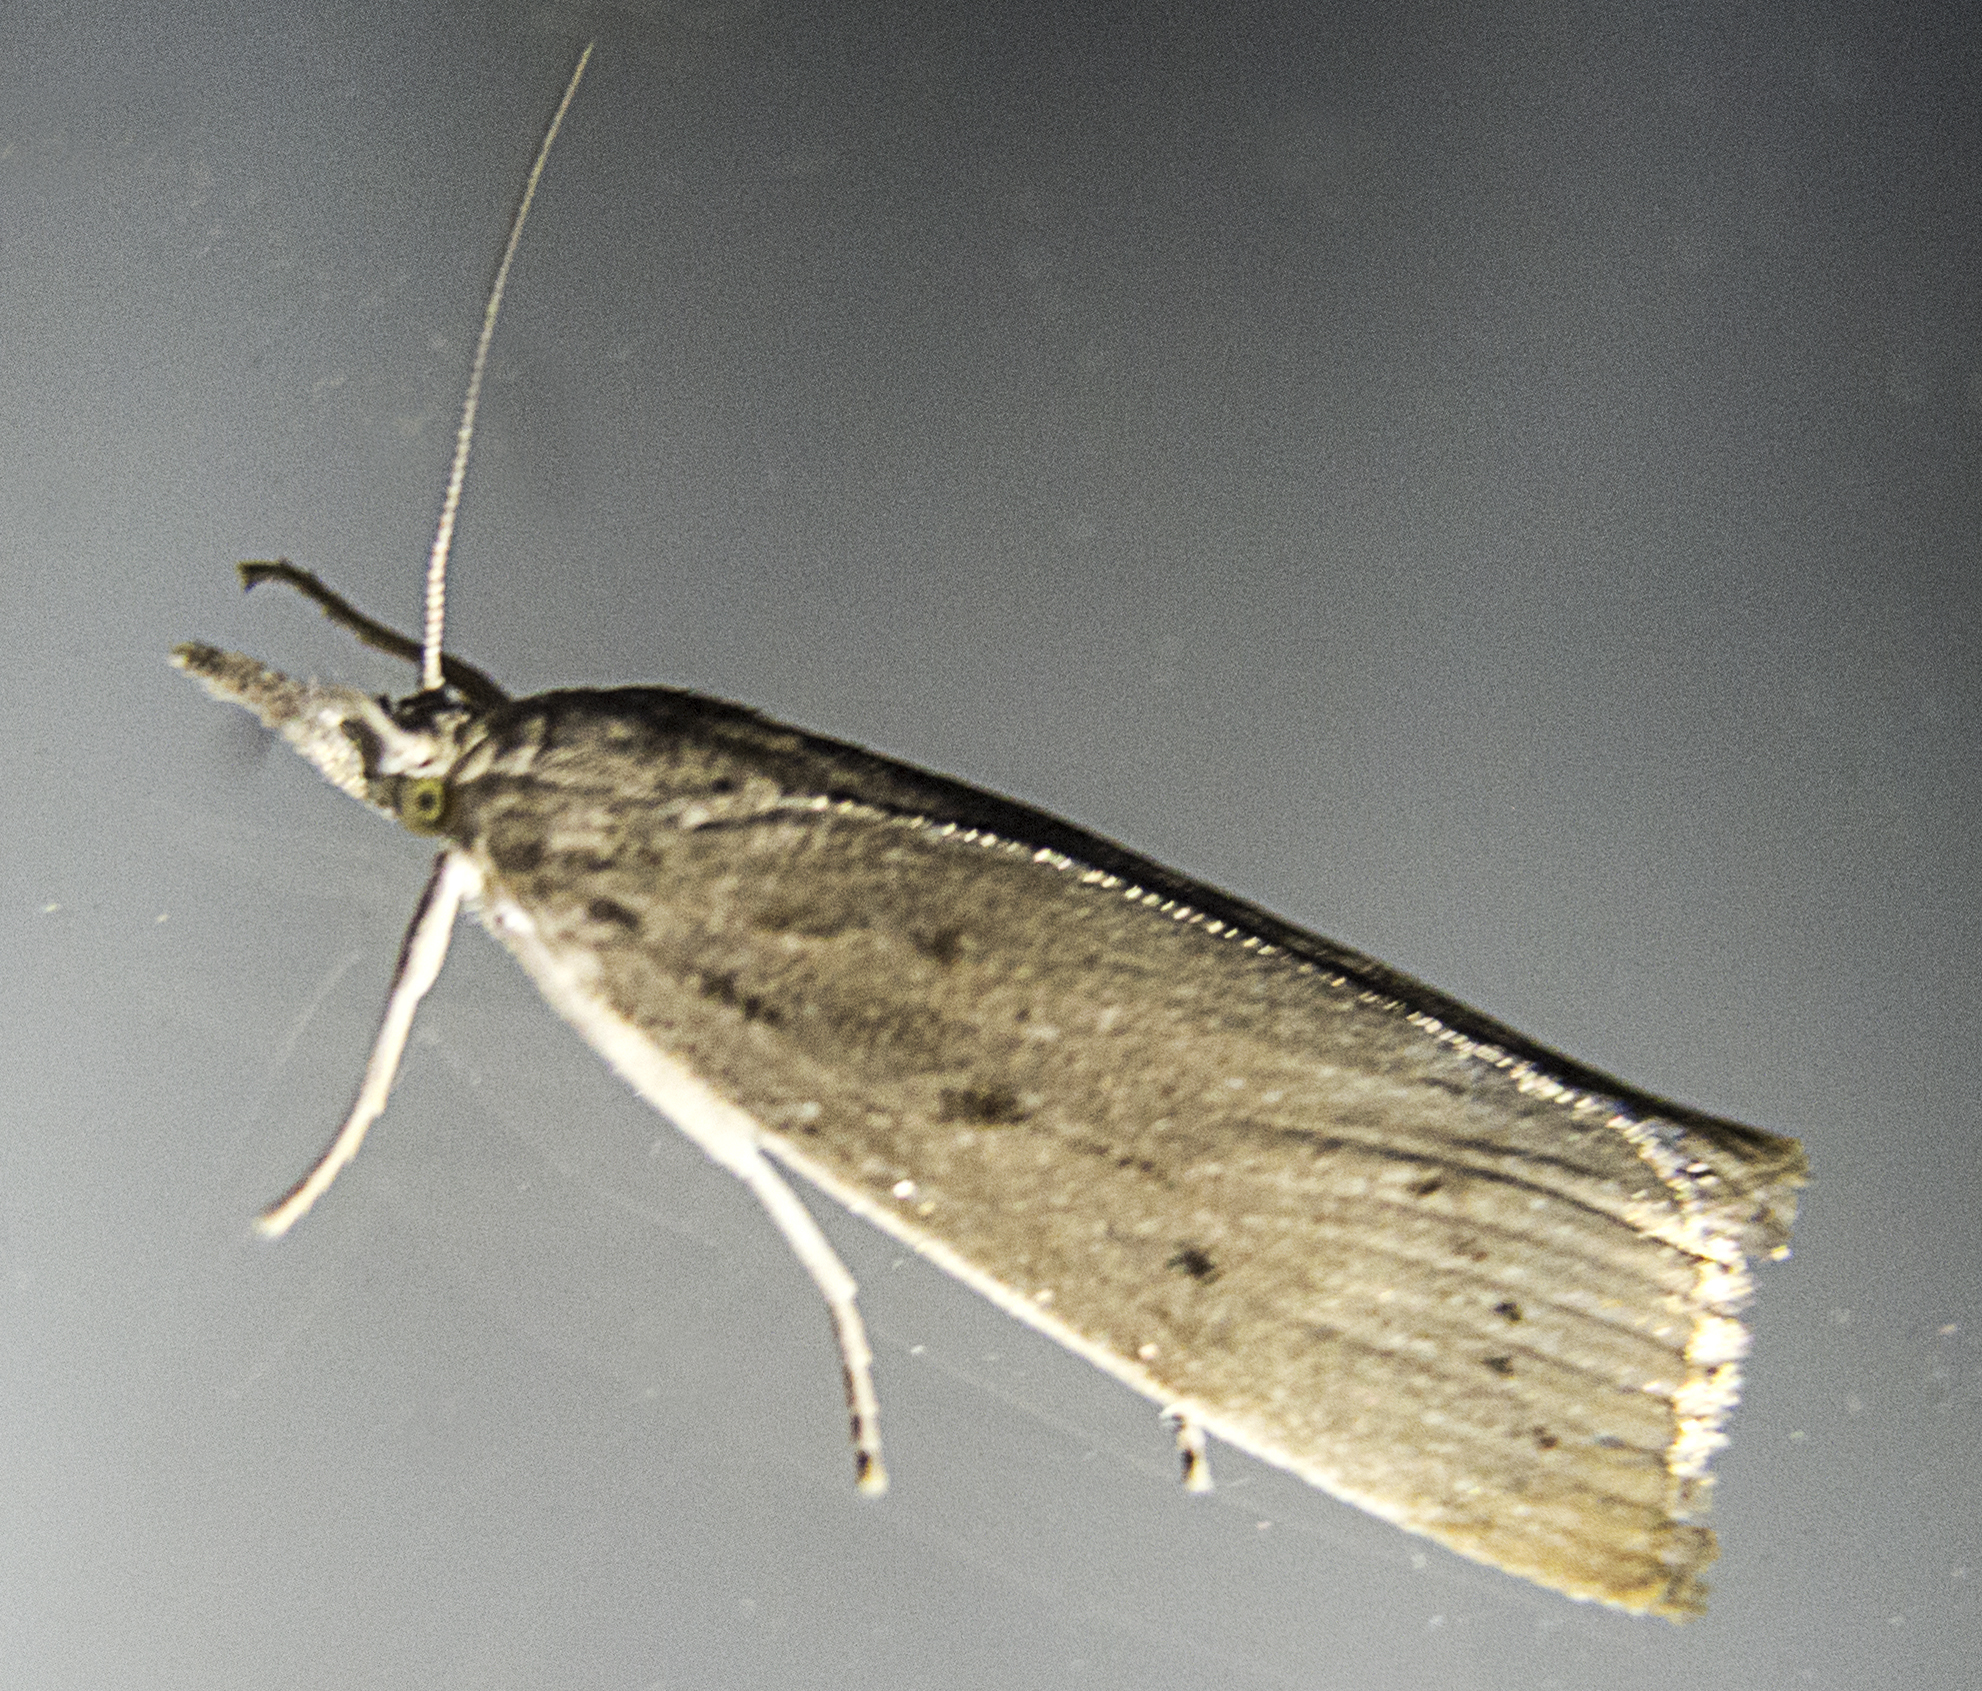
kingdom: Animalia
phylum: Arthropoda
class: Insecta
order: Lepidoptera
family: Crambidae
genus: Calamotropha
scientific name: Calamotropha paludella
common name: Bulrush veneer
